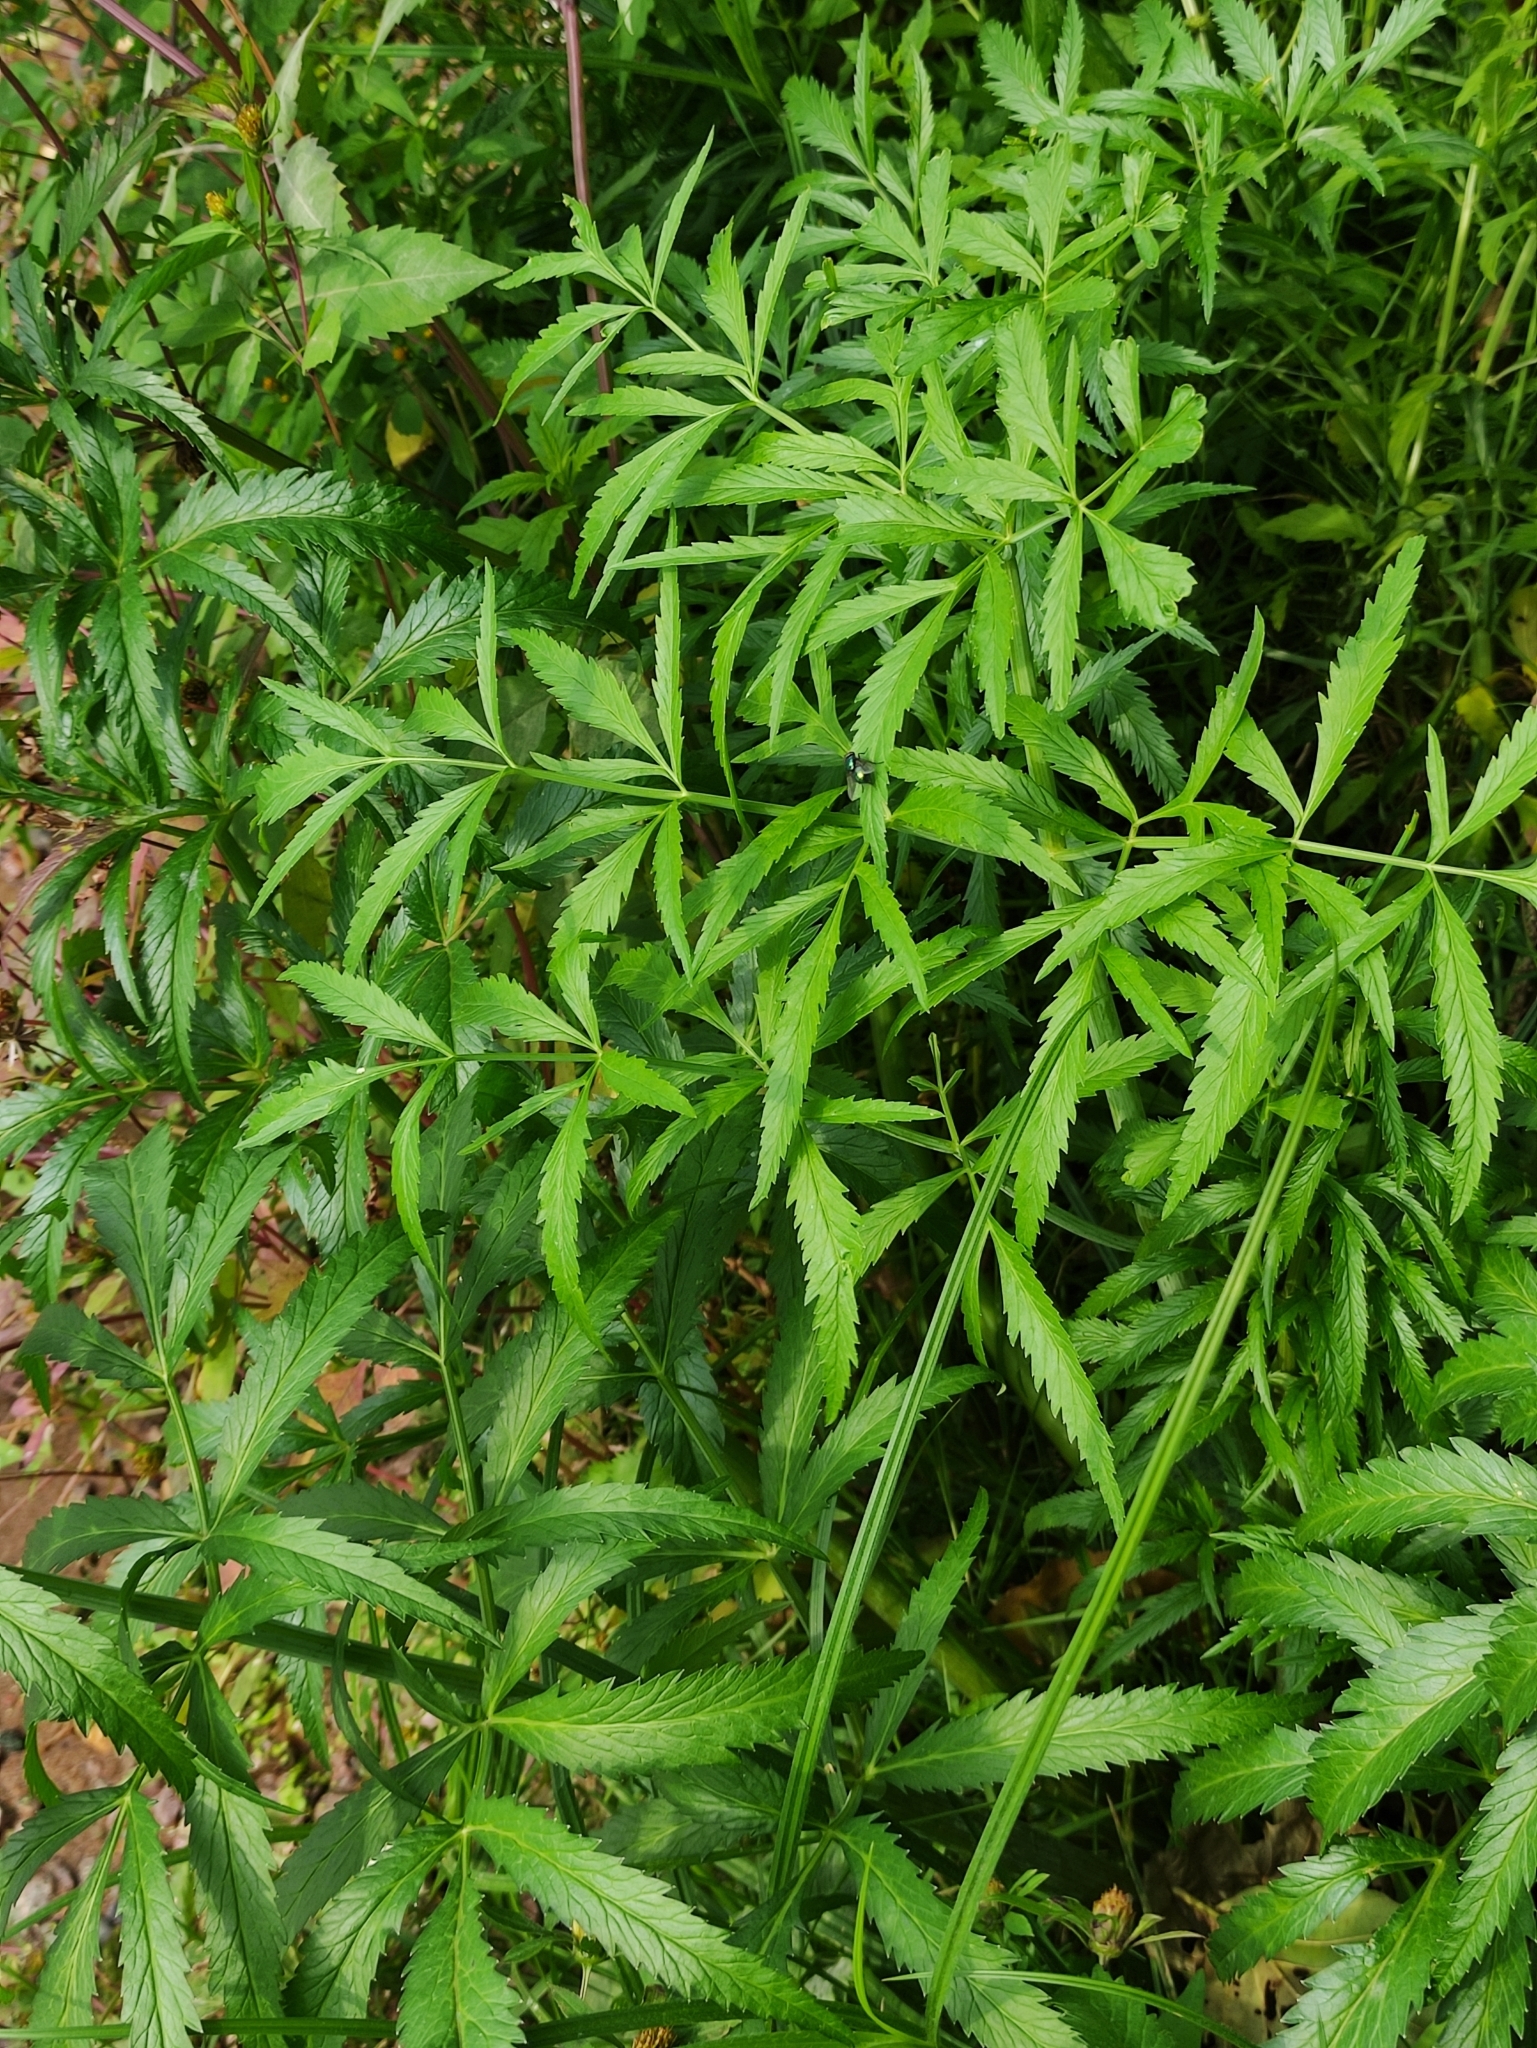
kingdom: Plantae
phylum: Tracheophyta
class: Magnoliopsida
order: Apiales
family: Apiaceae
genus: Cicuta
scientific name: Cicuta virosa
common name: Cowbane
